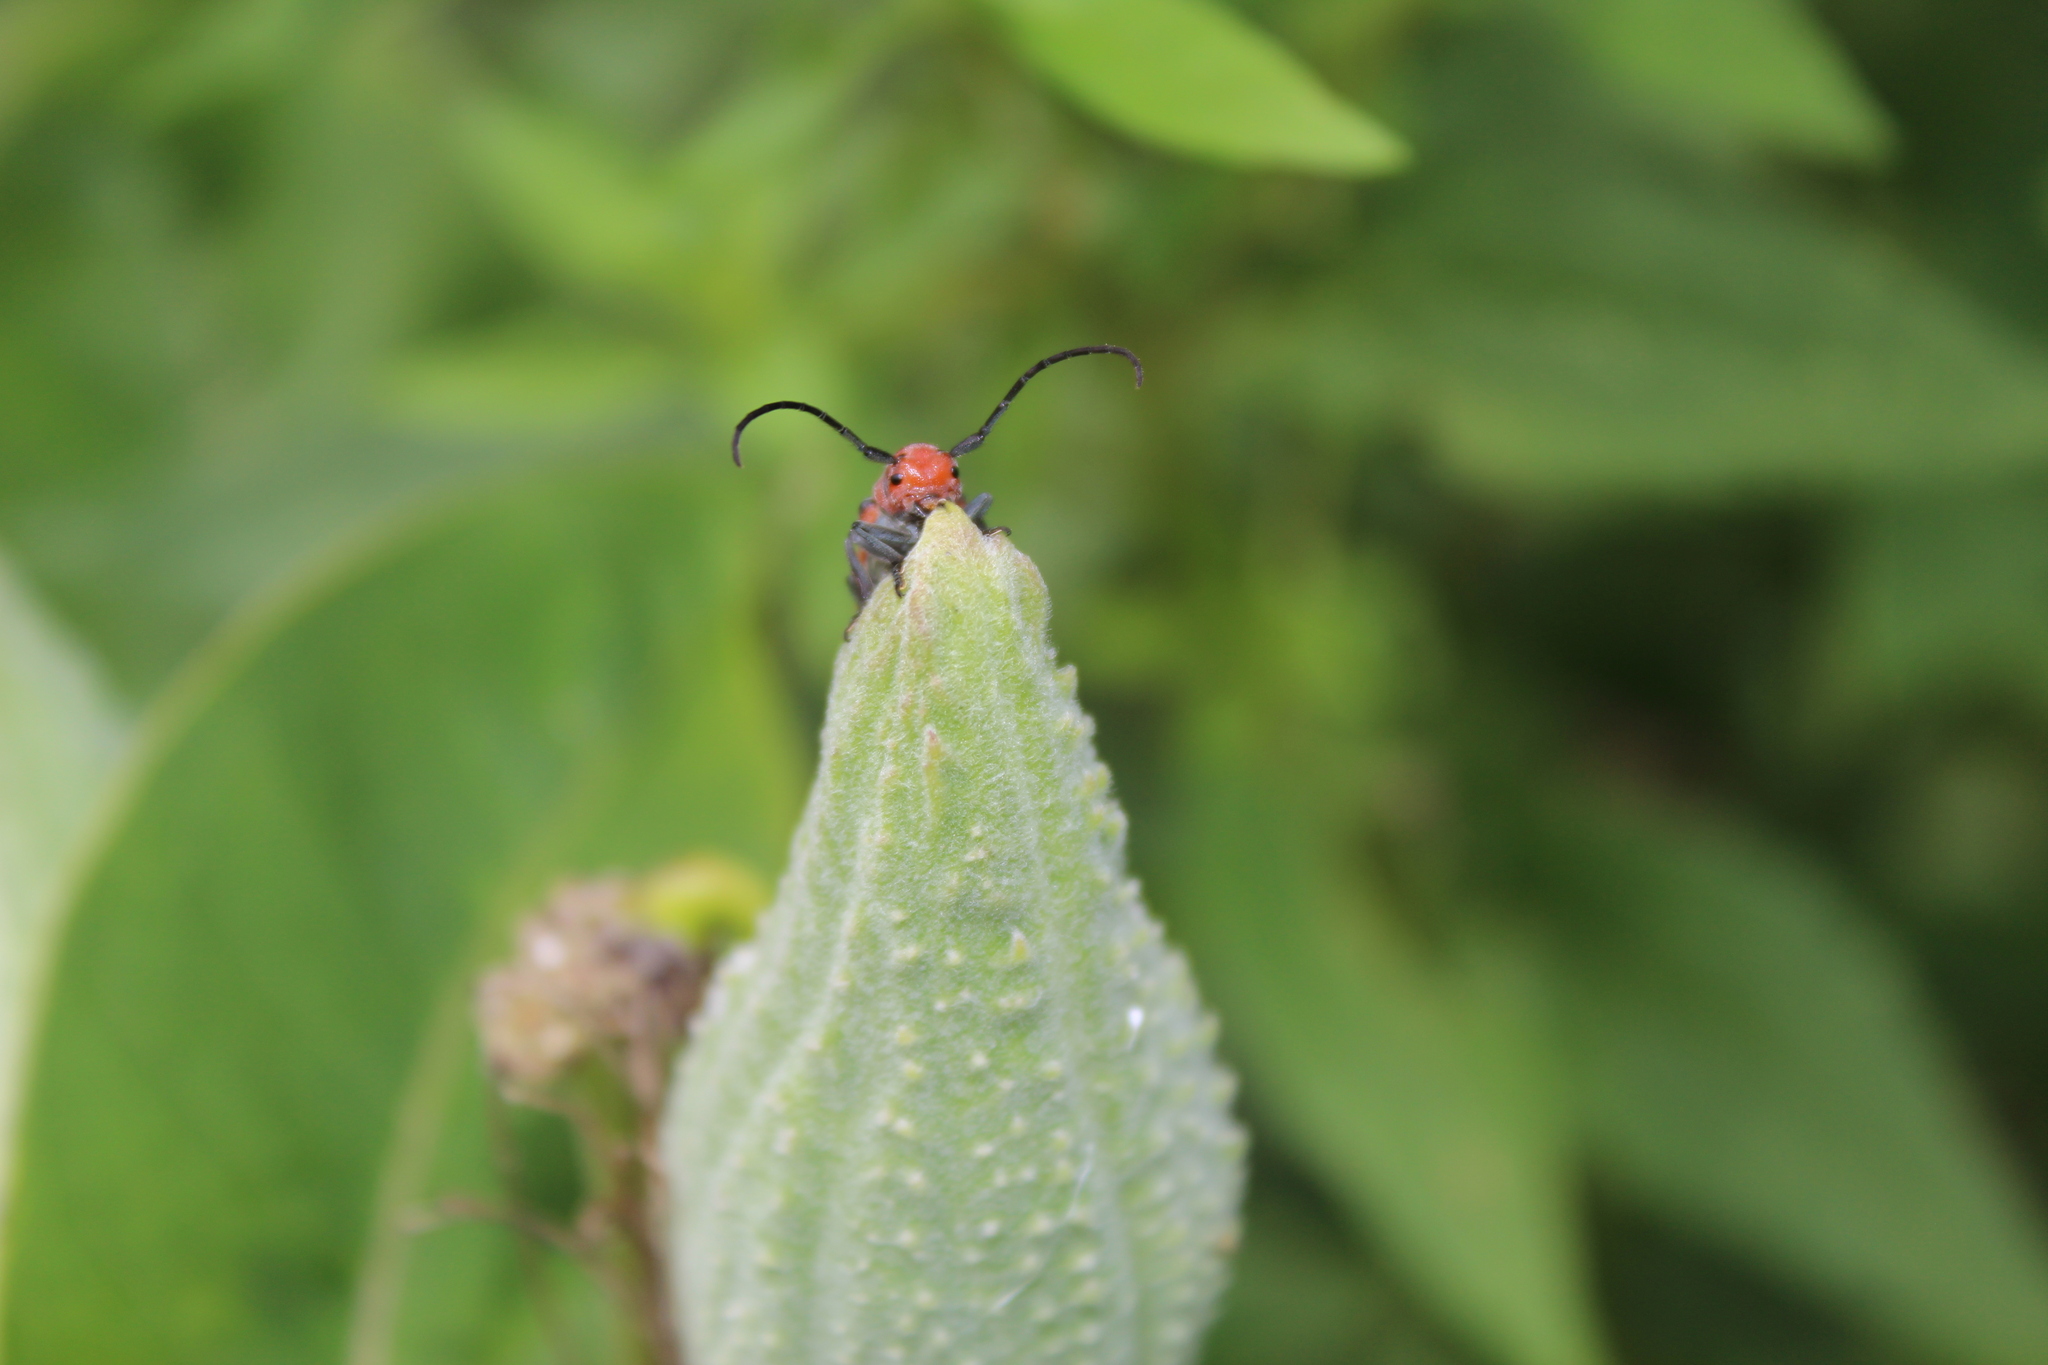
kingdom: Plantae
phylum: Tracheophyta
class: Magnoliopsida
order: Gentianales
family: Apocynaceae
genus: Asclepias
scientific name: Asclepias syriaca
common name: Common milkweed
